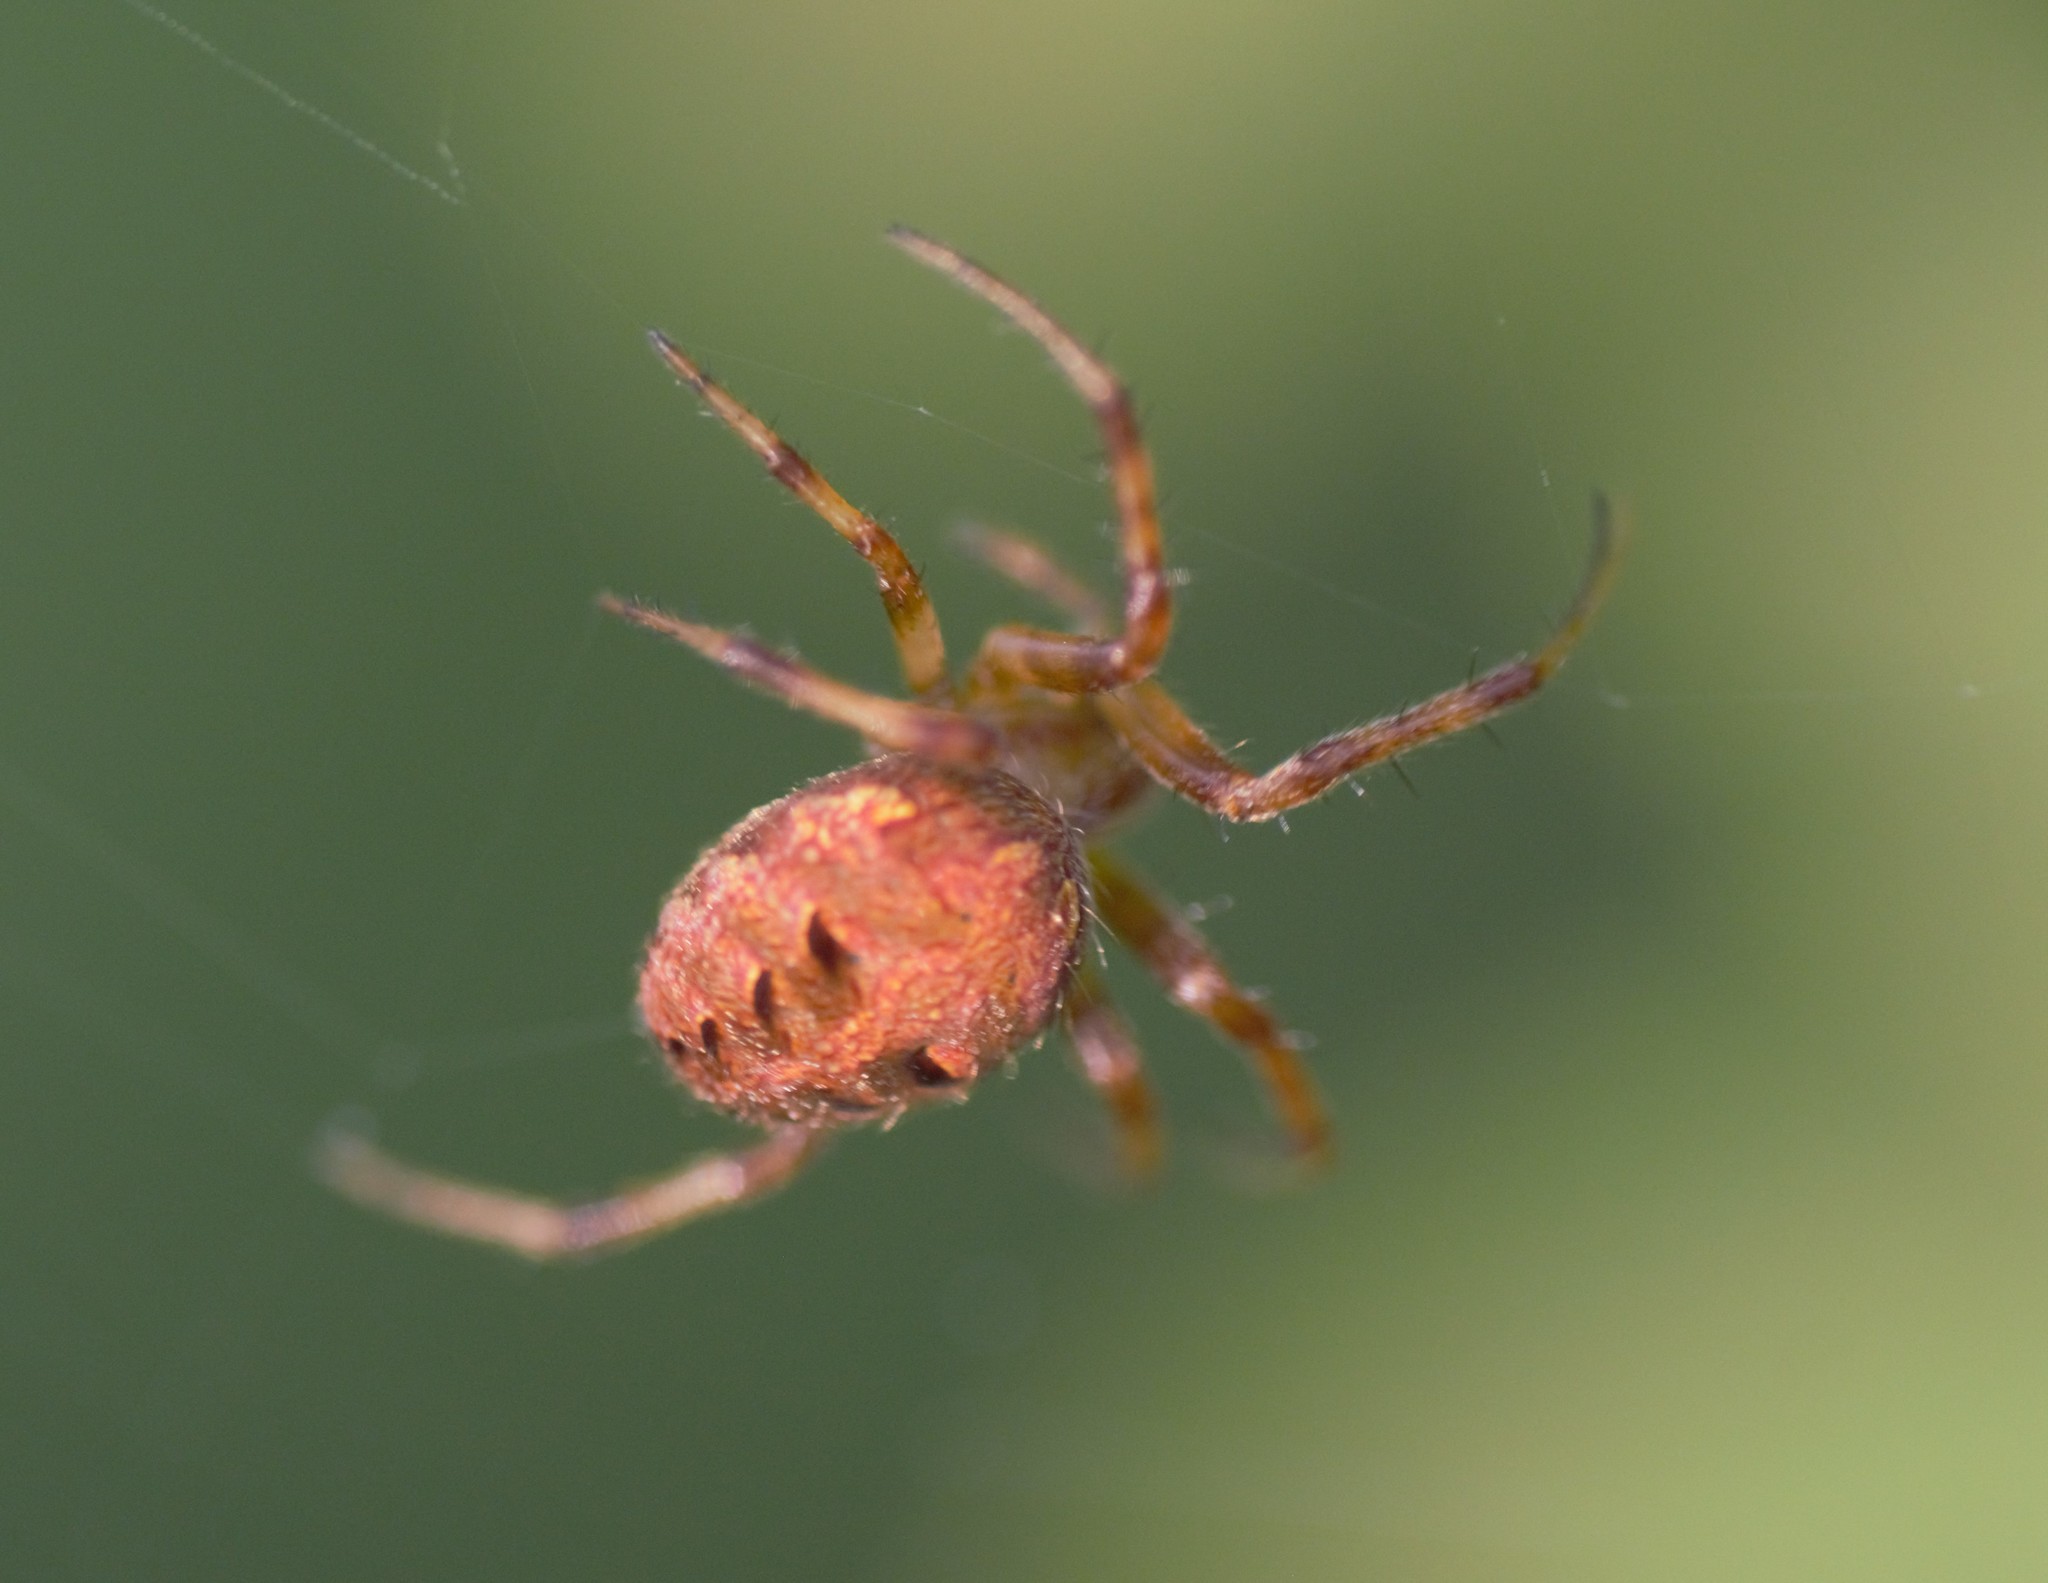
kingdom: Animalia
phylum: Arthropoda
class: Arachnida
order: Araneae
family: Araneidae
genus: Neoscona
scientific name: Neoscona arabesca
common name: Orb weavers
